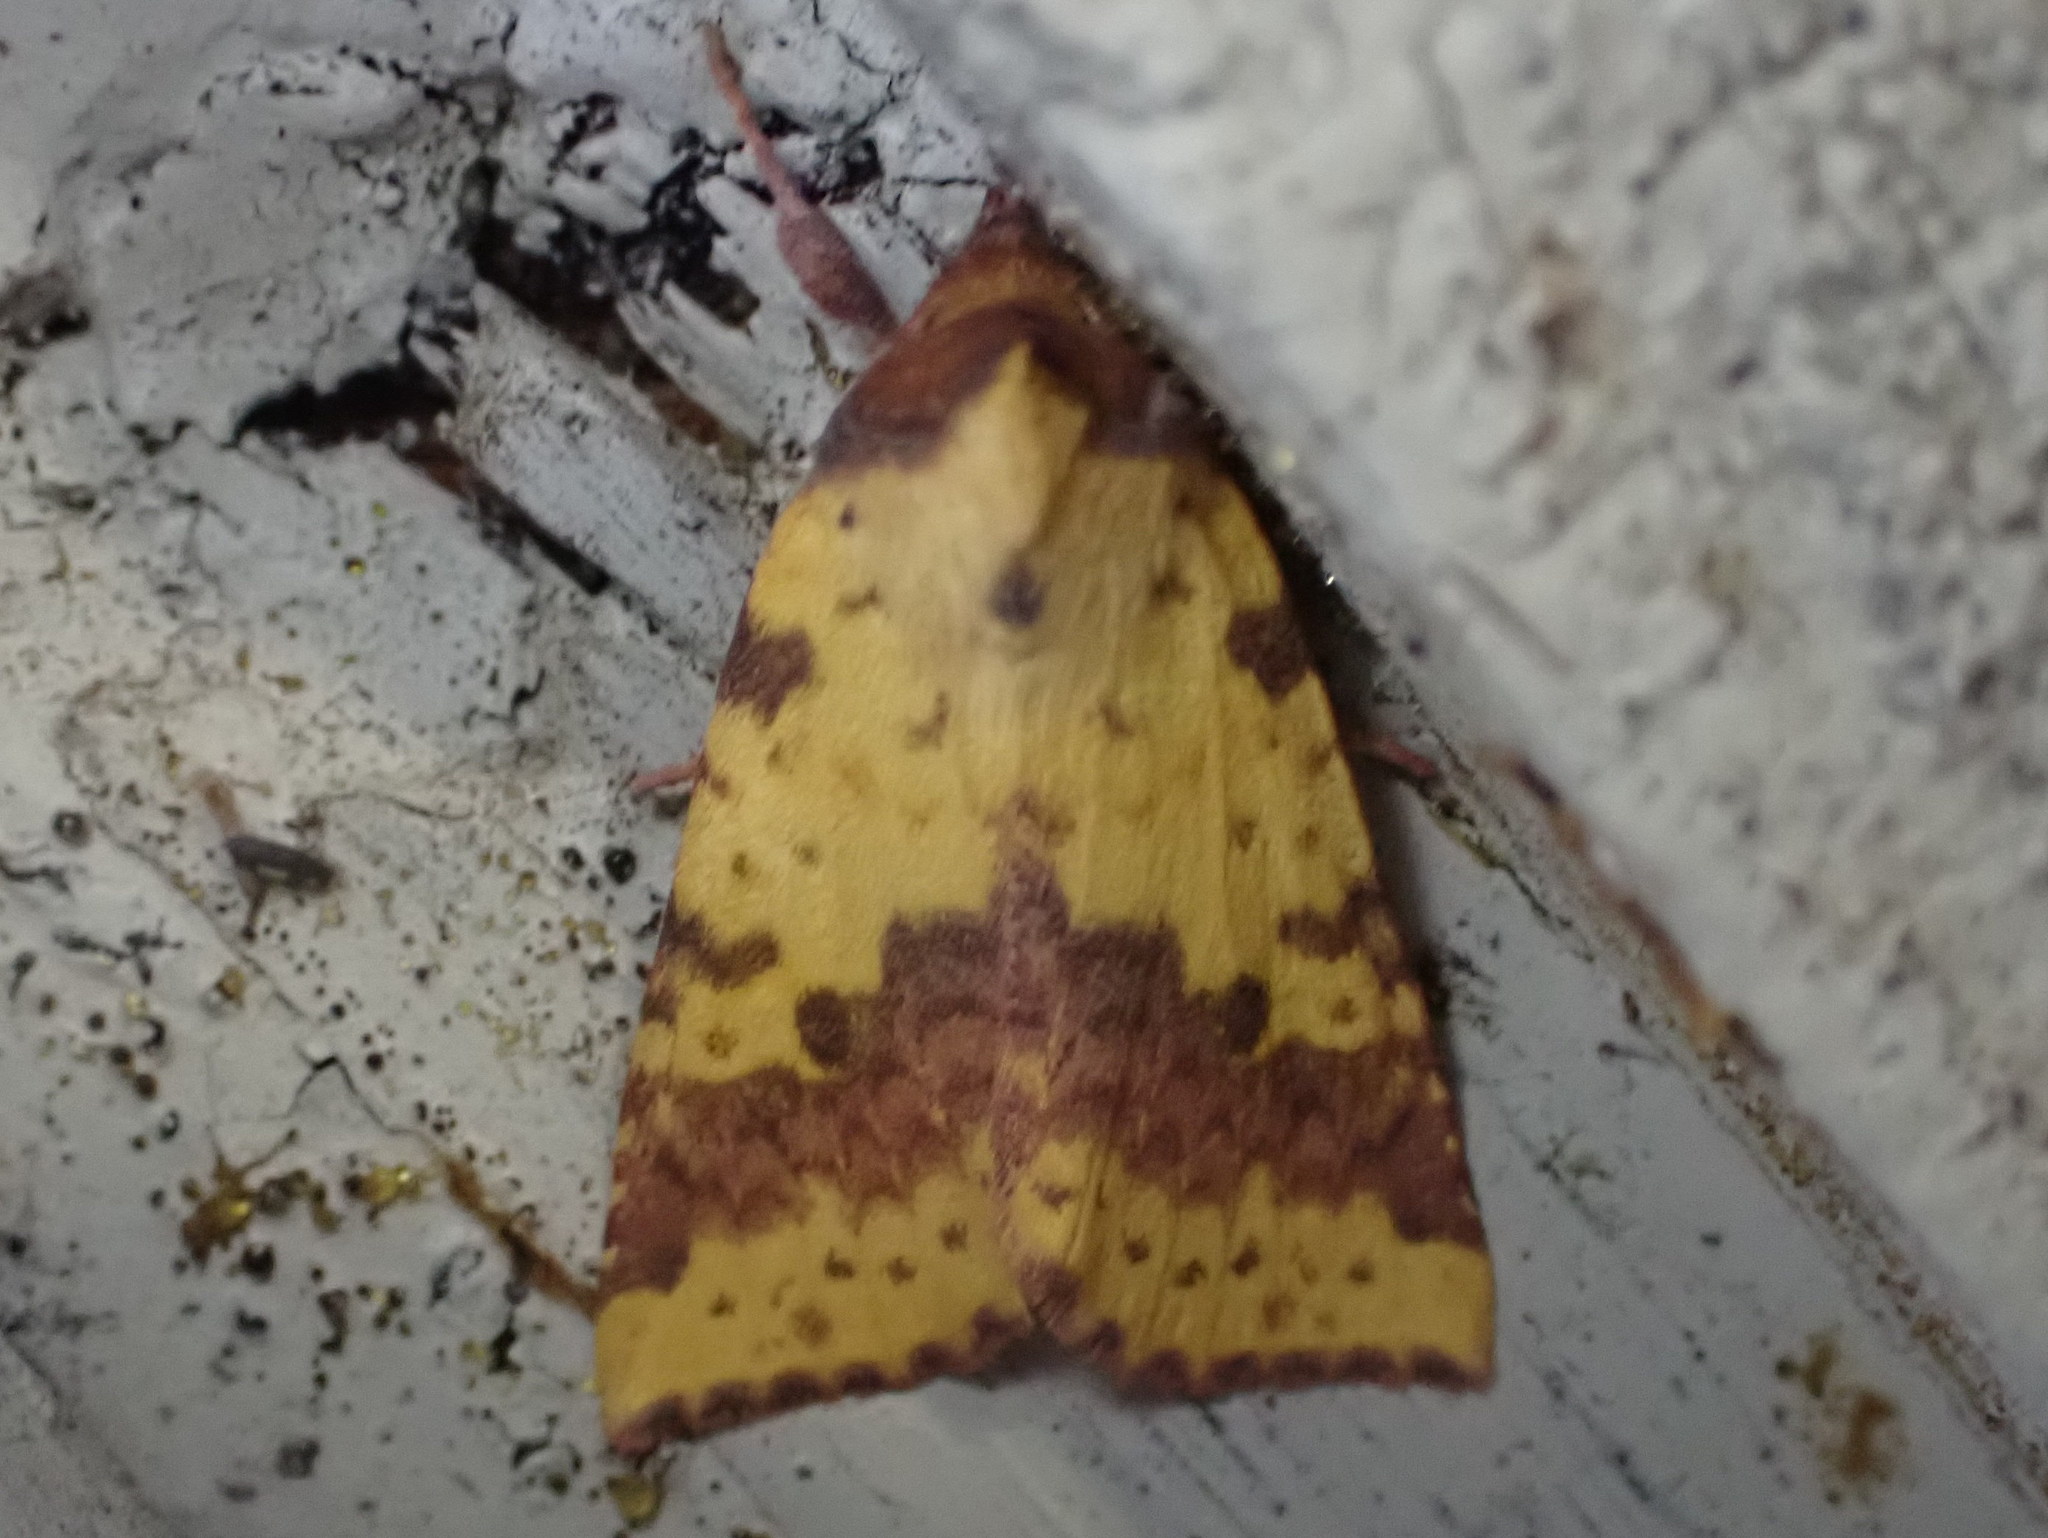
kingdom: Animalia
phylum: Arthropoda
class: Insecta
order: Lepidoptera
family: Noctuidae
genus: Xanthia
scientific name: Xanthia tatago
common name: Pink-banded sallow
